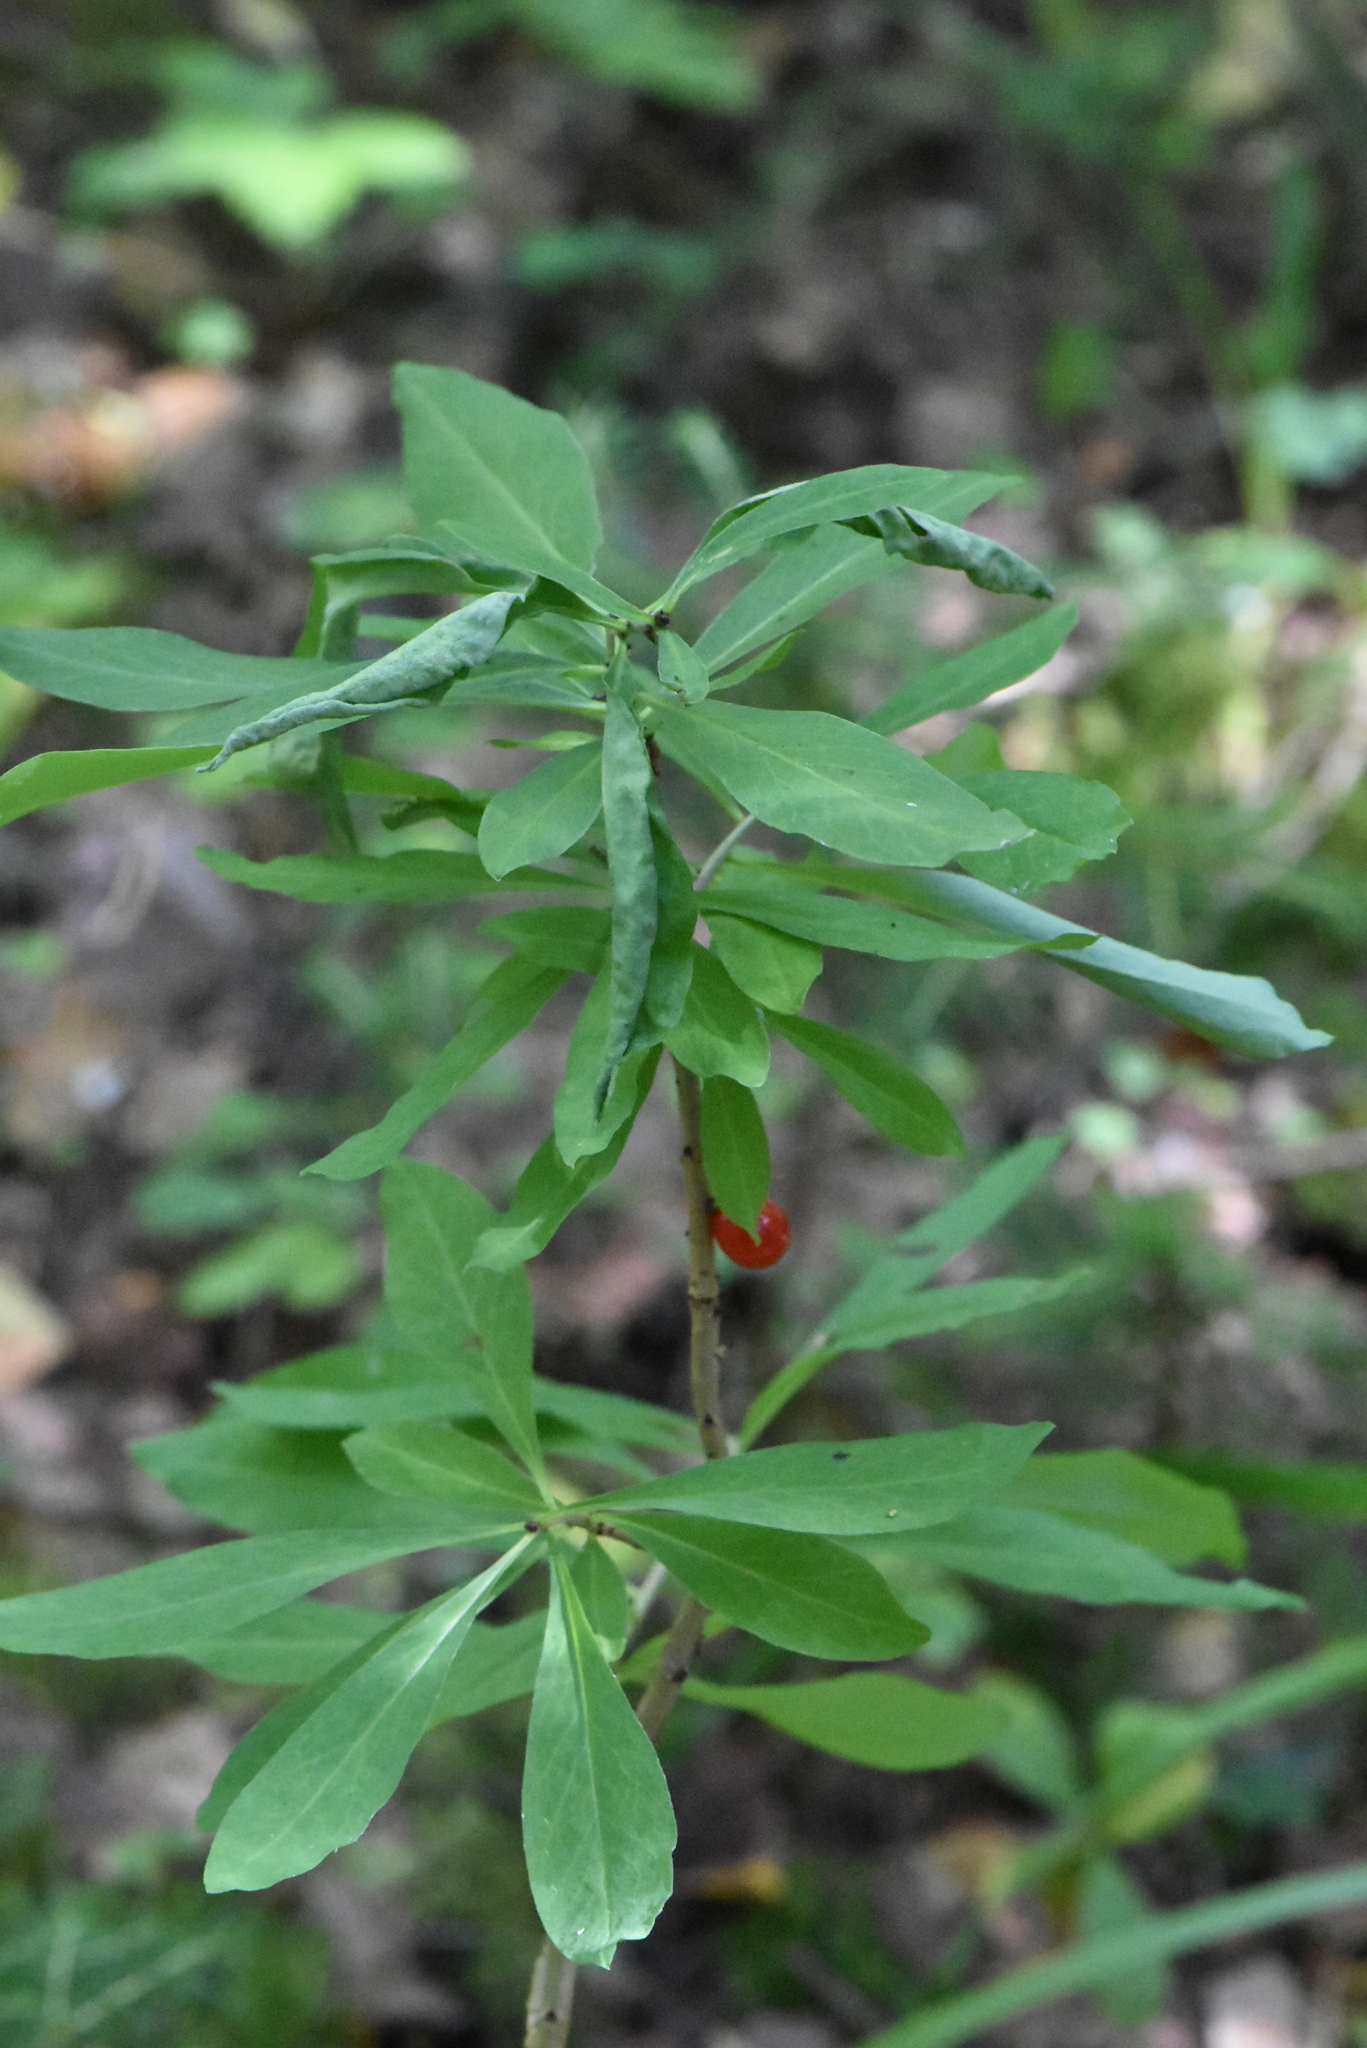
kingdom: Plantae
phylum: Tracheophyta
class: Magnoliopsida
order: Malvales
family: Thymelaeaceae
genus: Daphne
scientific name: Daphne mezereum
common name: Mezereon
